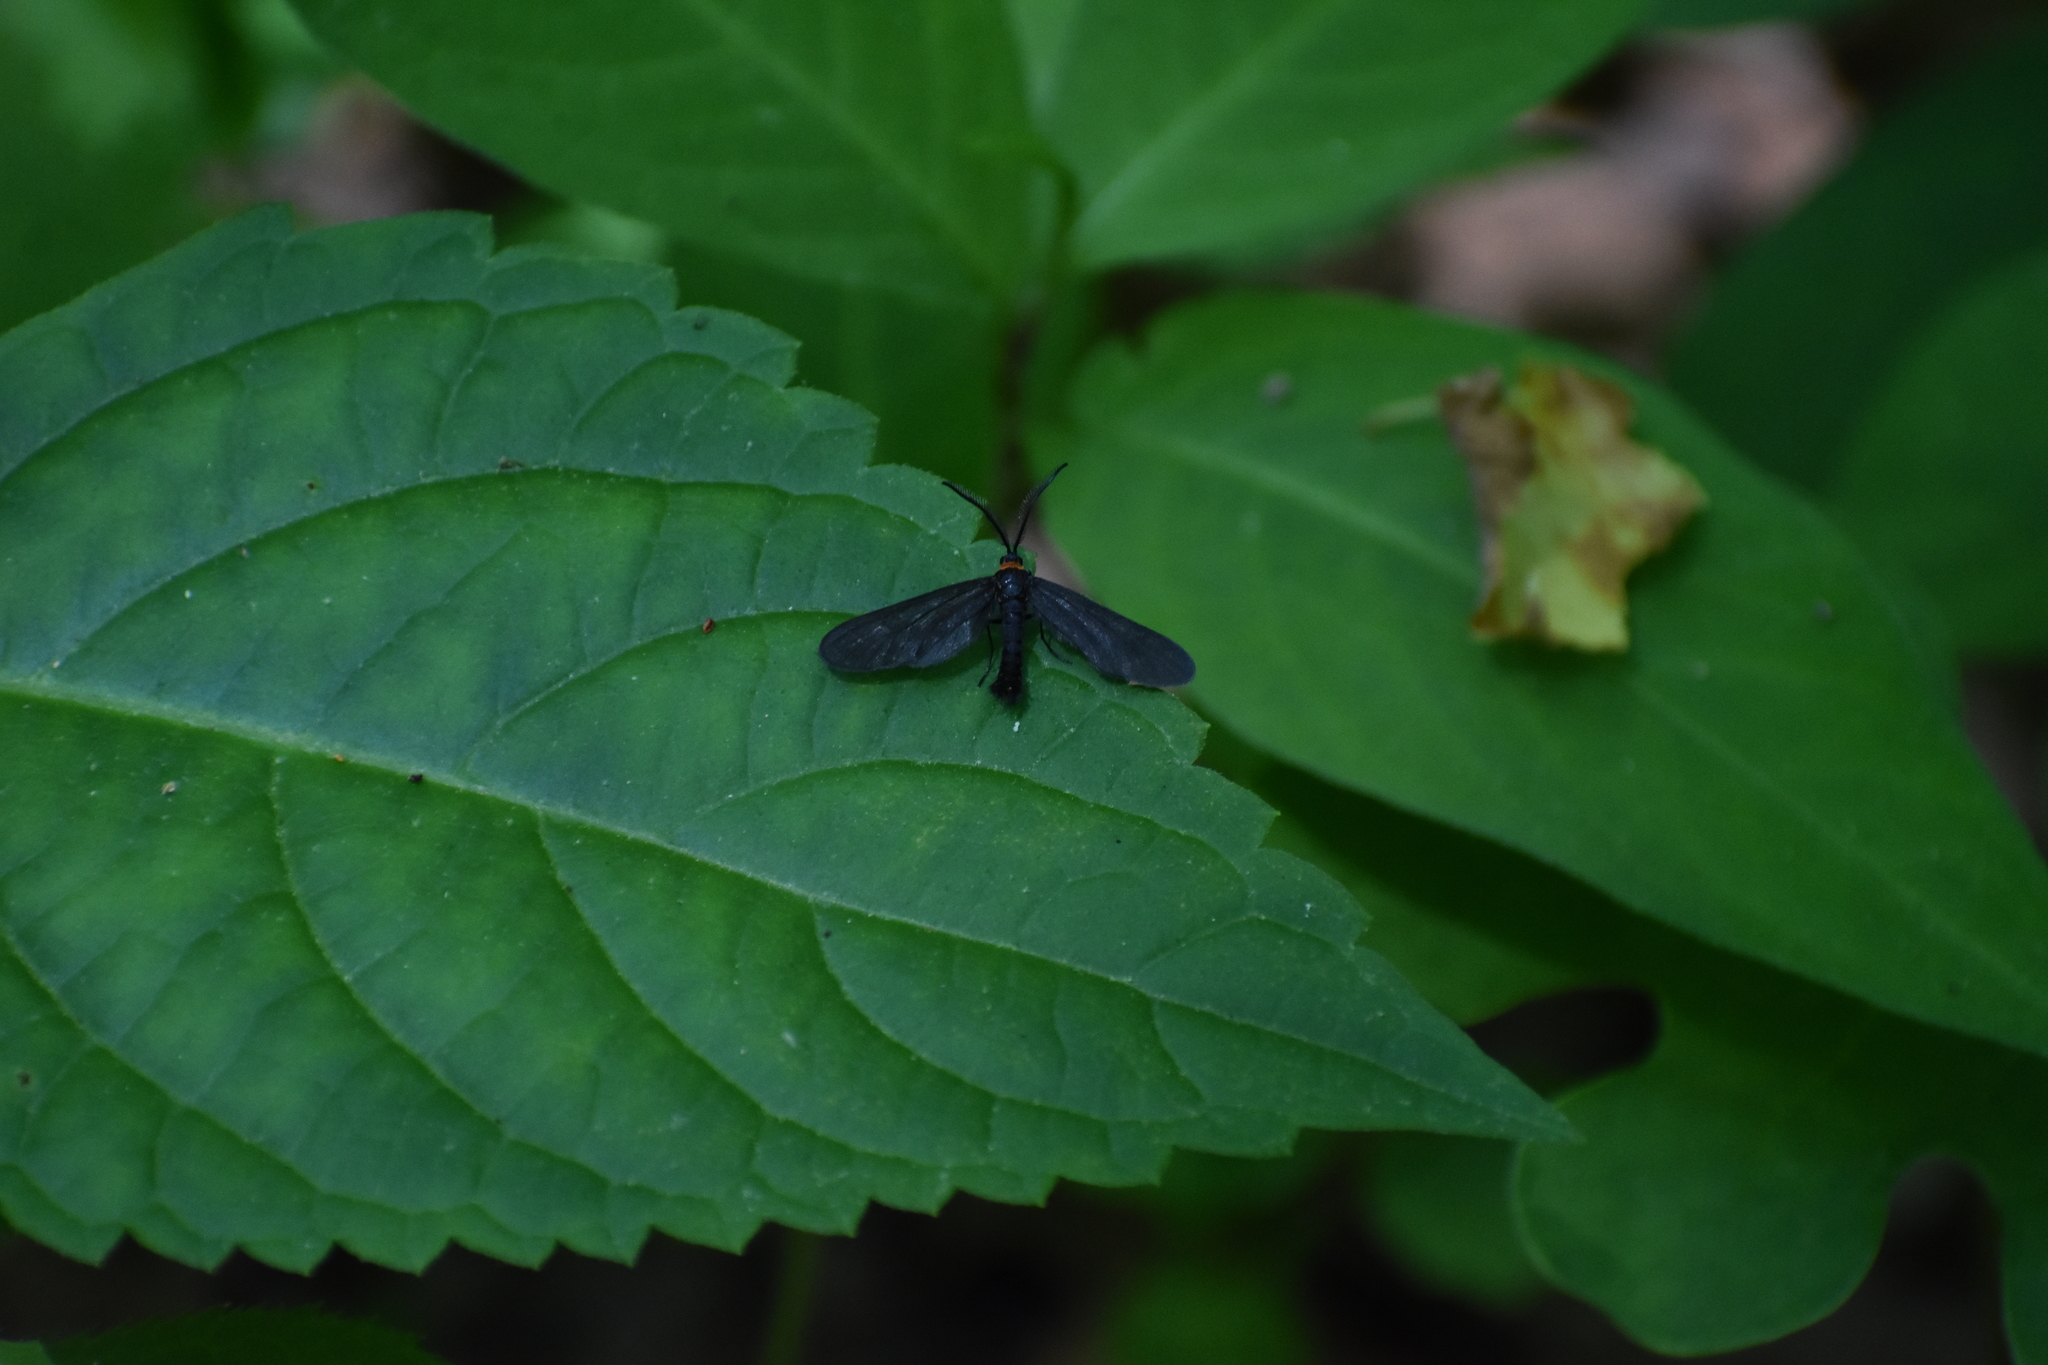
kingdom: Animalia
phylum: Arthropoda
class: Insecta
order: Lepidoptera
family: Zygaenidae
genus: Harrisina
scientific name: Harrisina americana
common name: Grapeleaf skeletonizer moth
